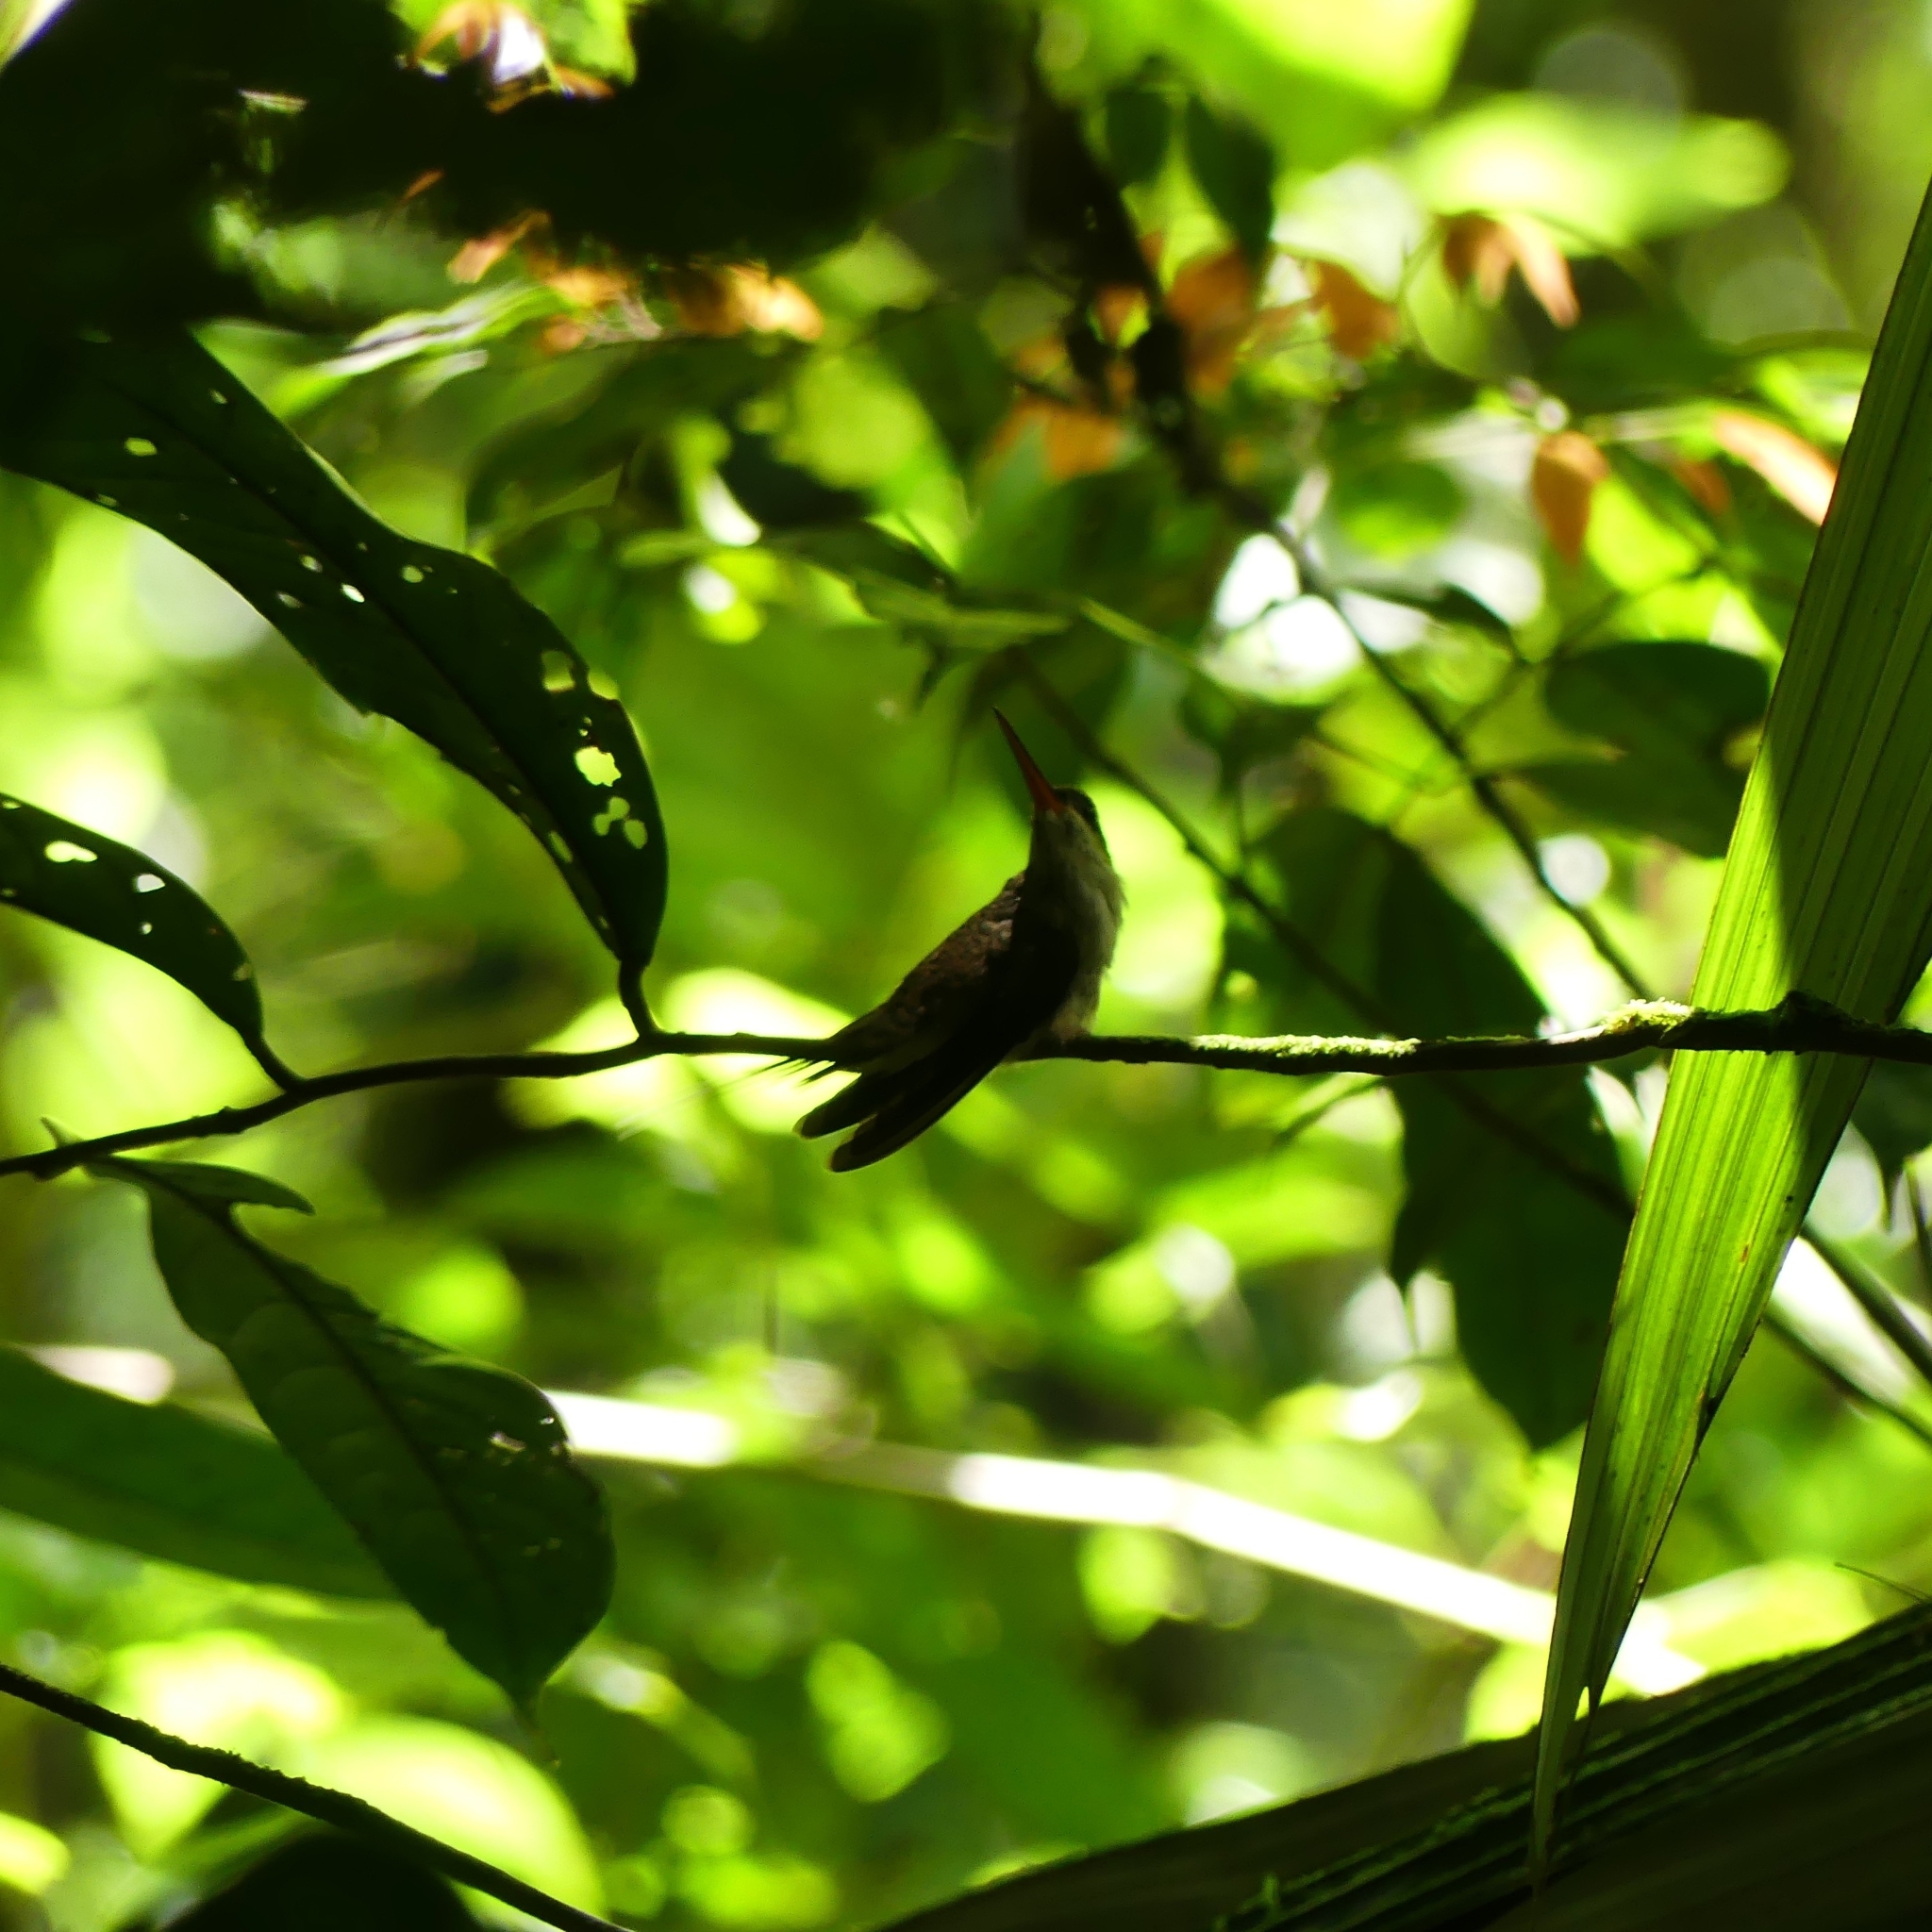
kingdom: Animalia
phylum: Chordata
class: Aves
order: Apodiformes
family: Trochilidae
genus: Phaethornis
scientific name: Phaethornis bourcieri
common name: Straight-billed hermit
